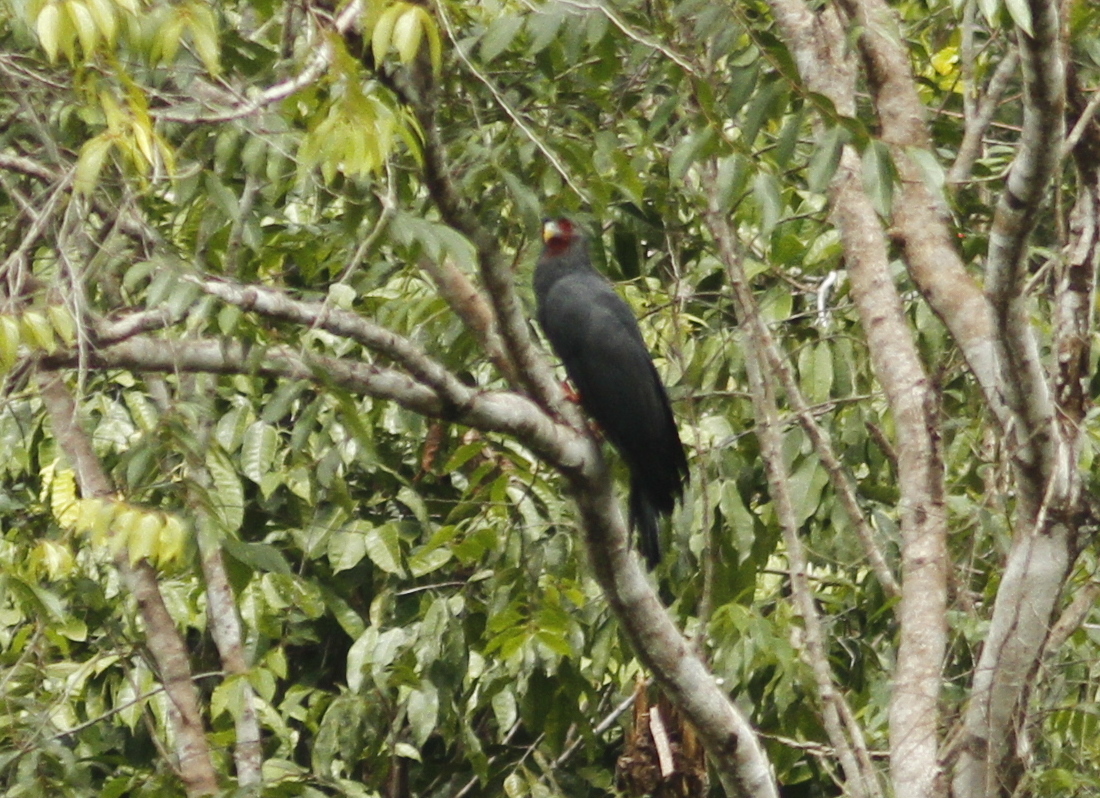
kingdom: Animalia
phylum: Chordata
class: Aves
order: Falconiformes
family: Falconidae
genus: Ibycter
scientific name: Ibycter americanus
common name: Red-throated caracara
